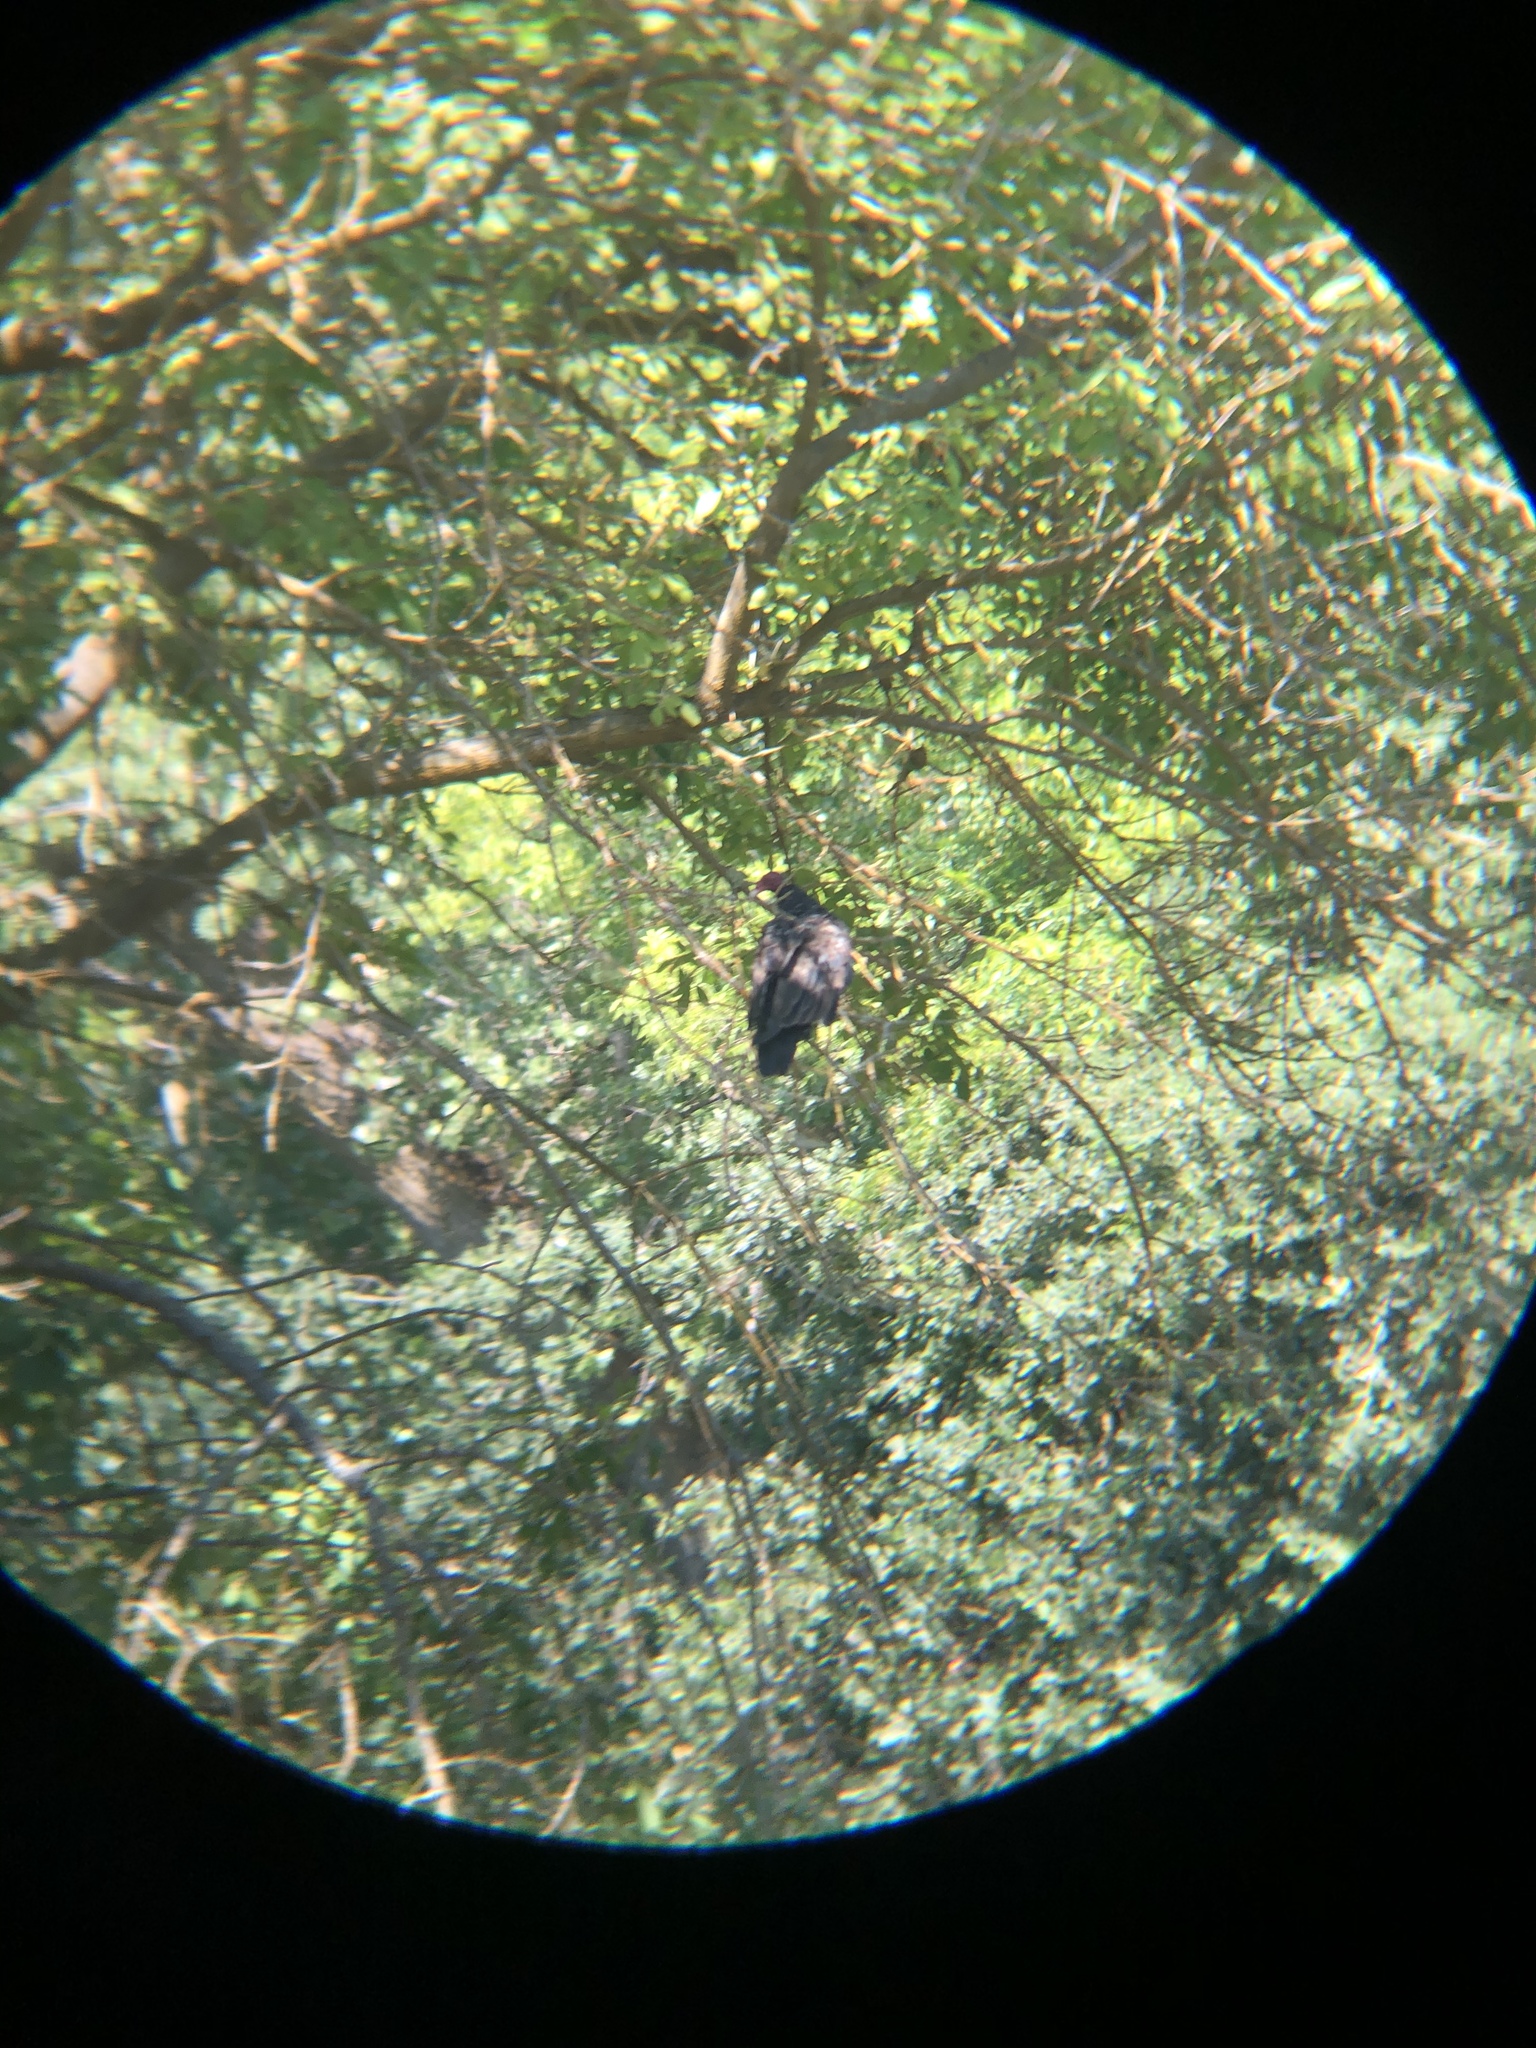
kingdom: Animalia
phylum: Chordata
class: Aves
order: Accipitriformes
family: Cathartidae
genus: Cathartes
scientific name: Cathartes aura
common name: Turkey vulture
